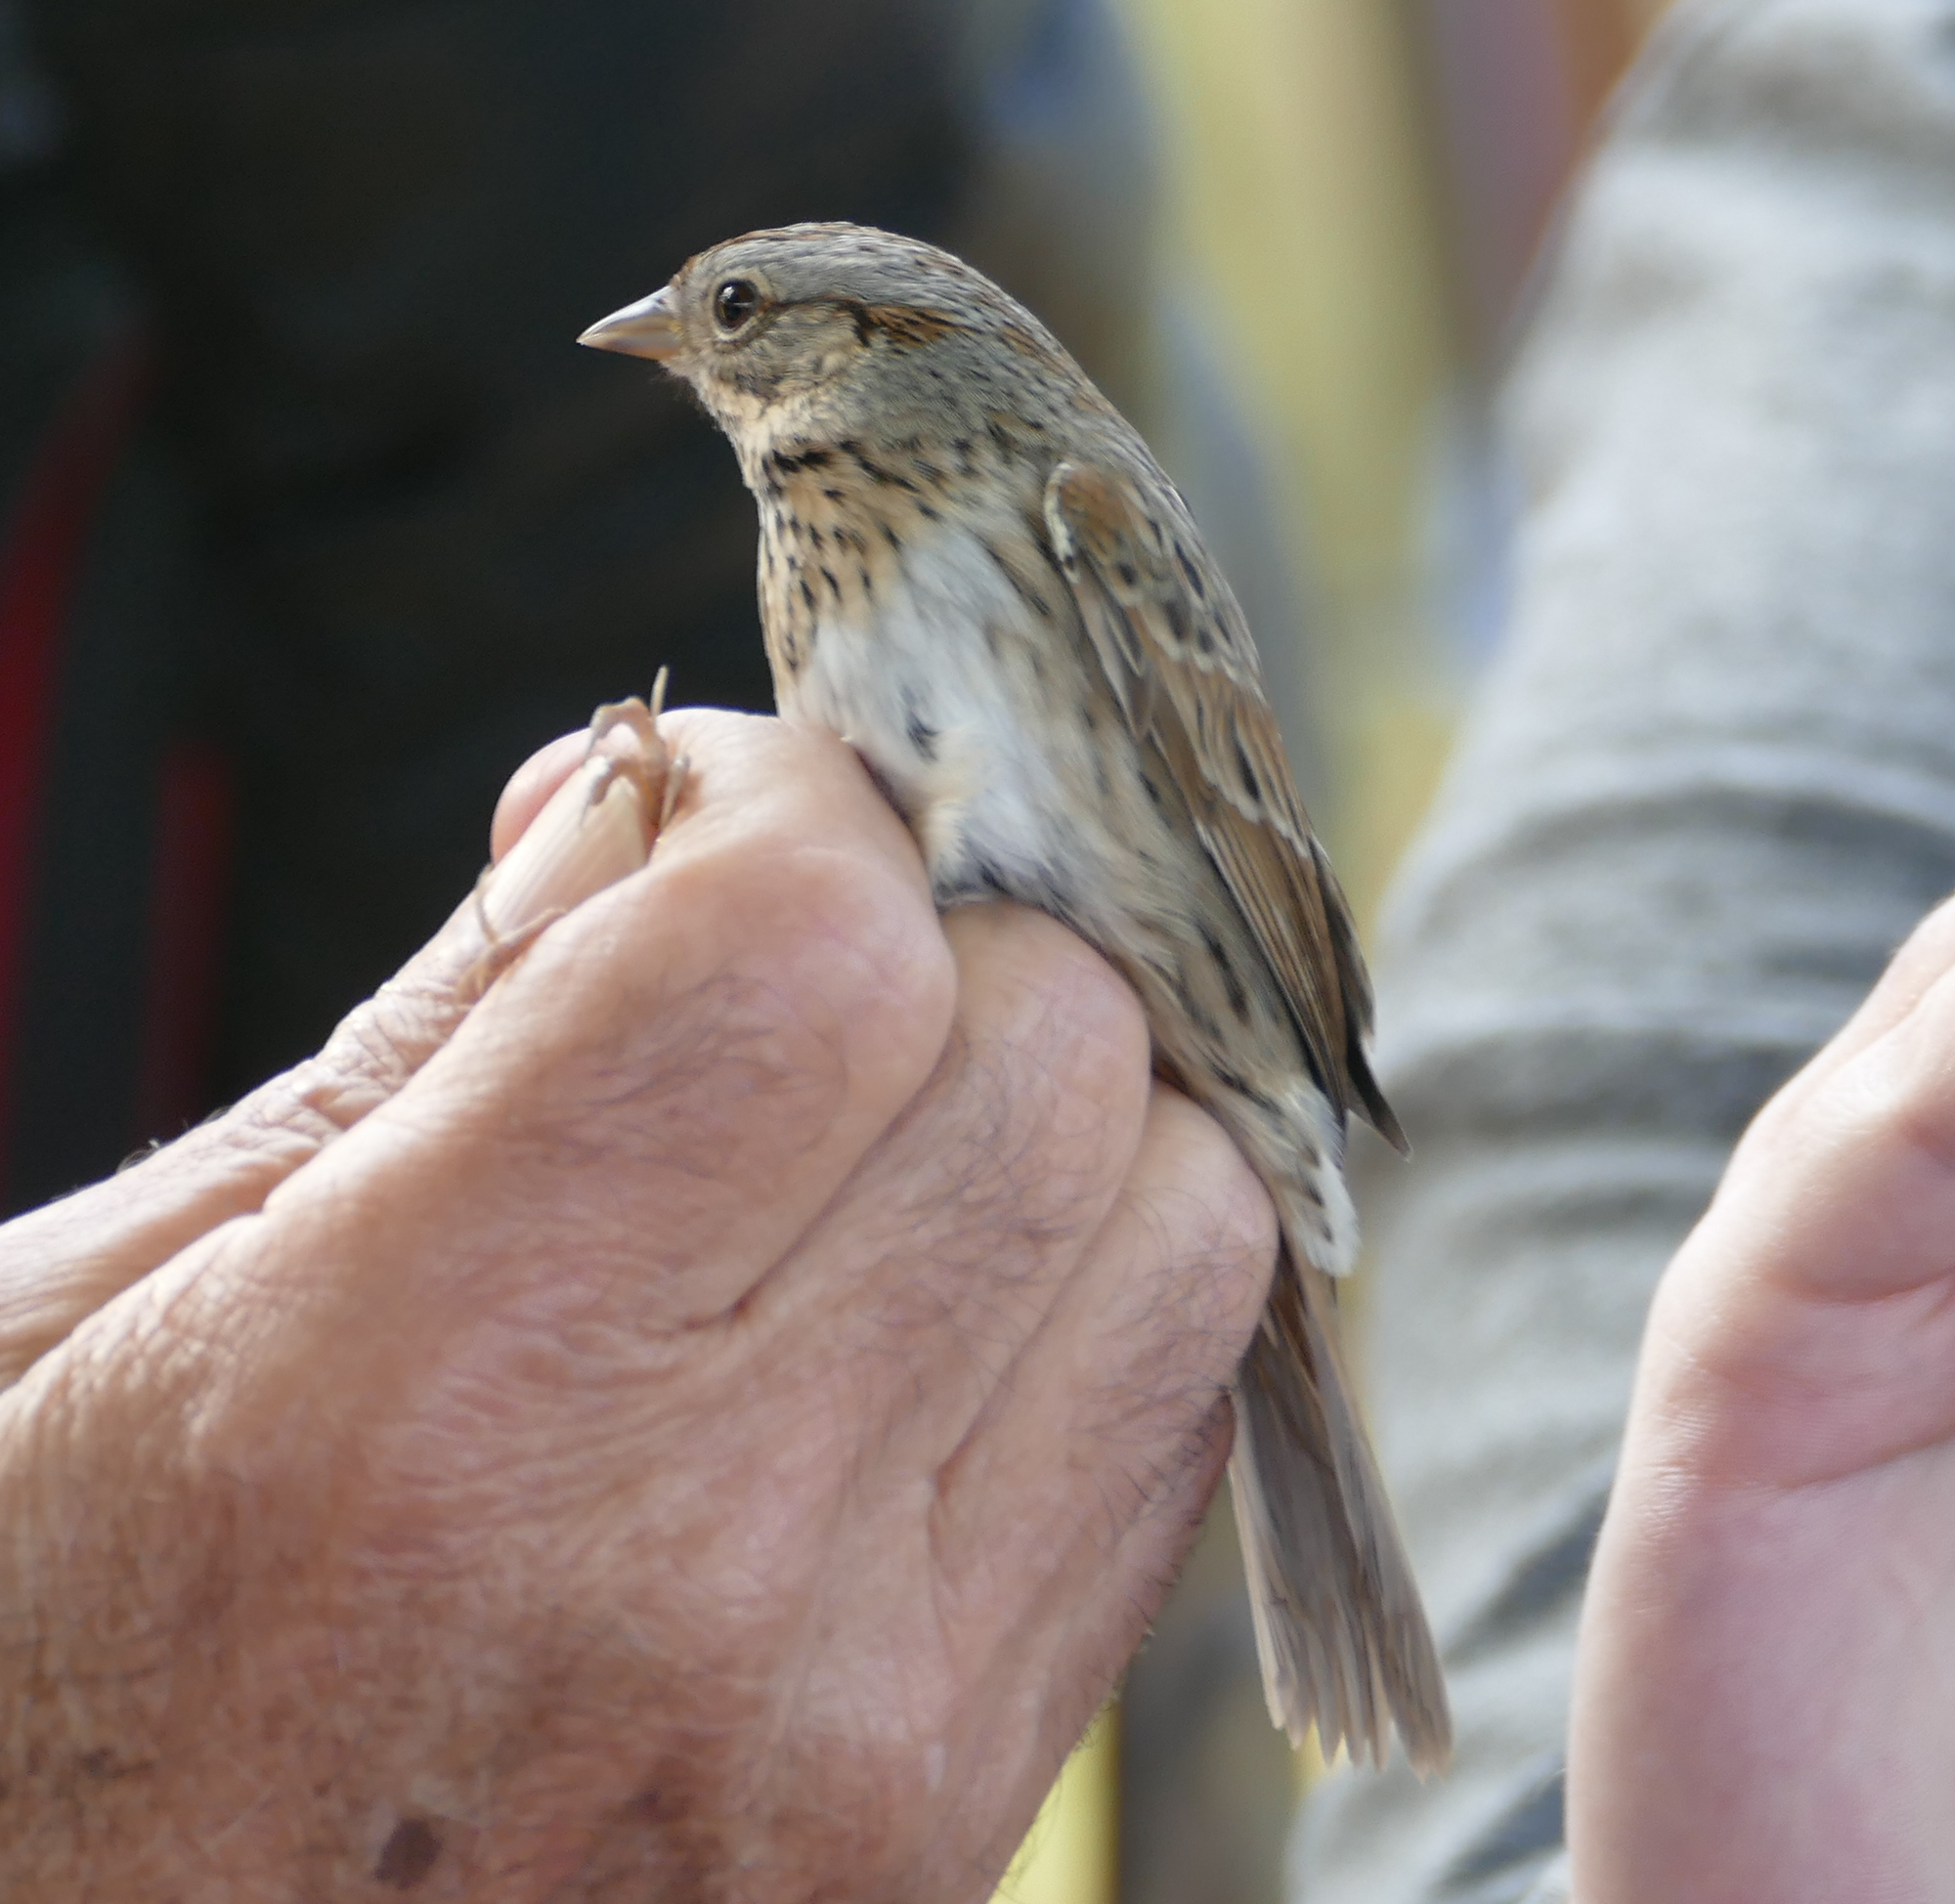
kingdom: Animalia
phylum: Chordata
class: Aves
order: Passeriformes
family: Passerellidae
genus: Melospiza
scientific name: Melospiza lincolnii
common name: Lincoln's sparrow
